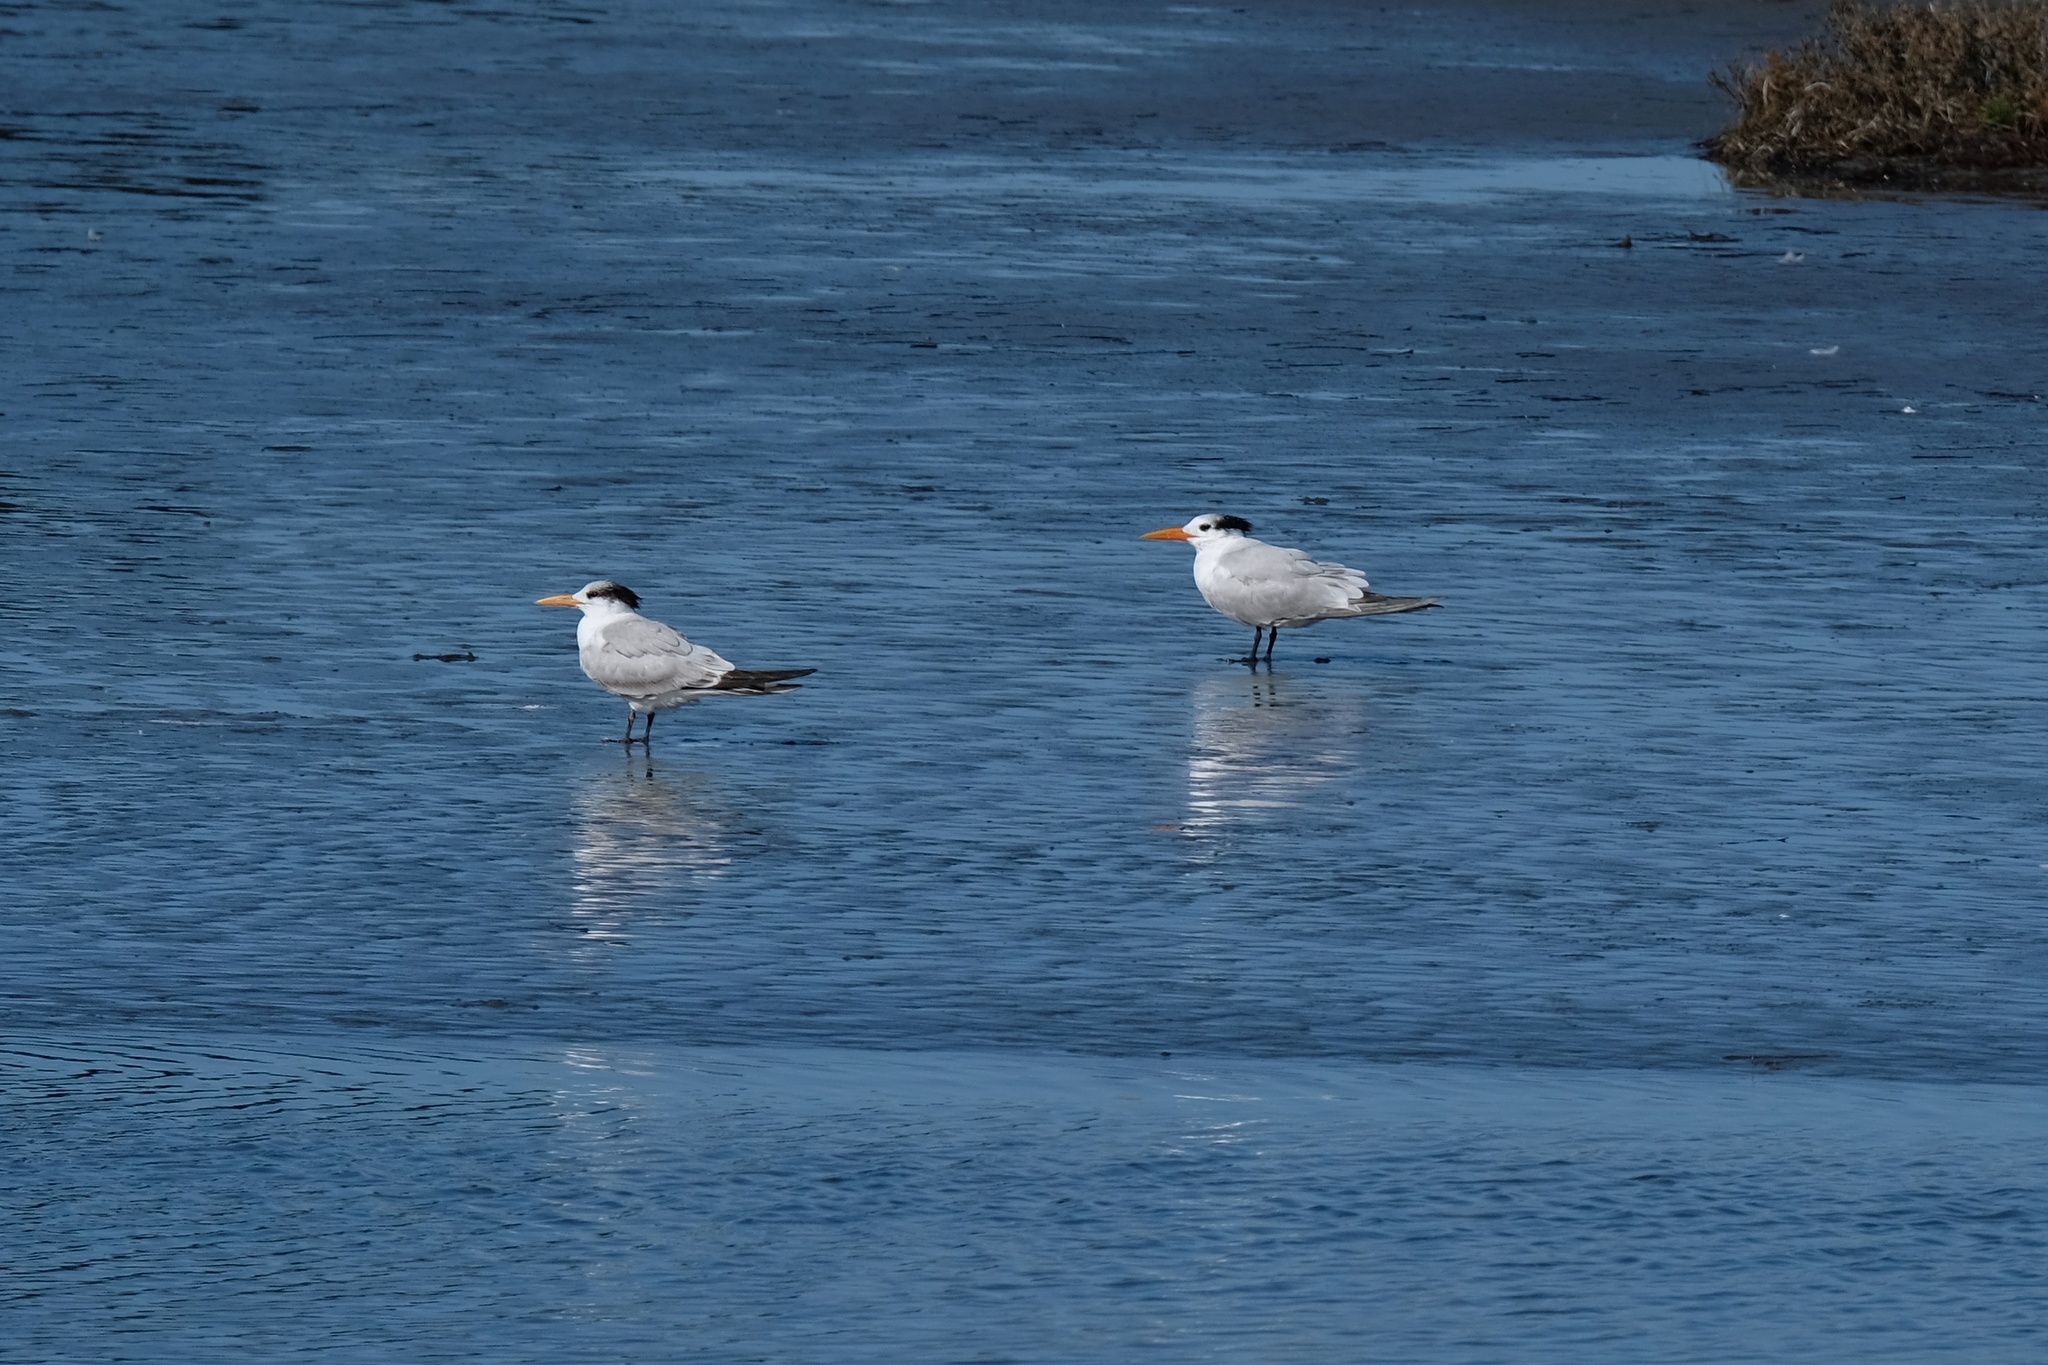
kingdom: Animalia
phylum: Chordata
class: Aves
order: Charadriiformes
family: Laridae
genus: Thalasseus
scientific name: Thalasseus maximus
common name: Royal tern
